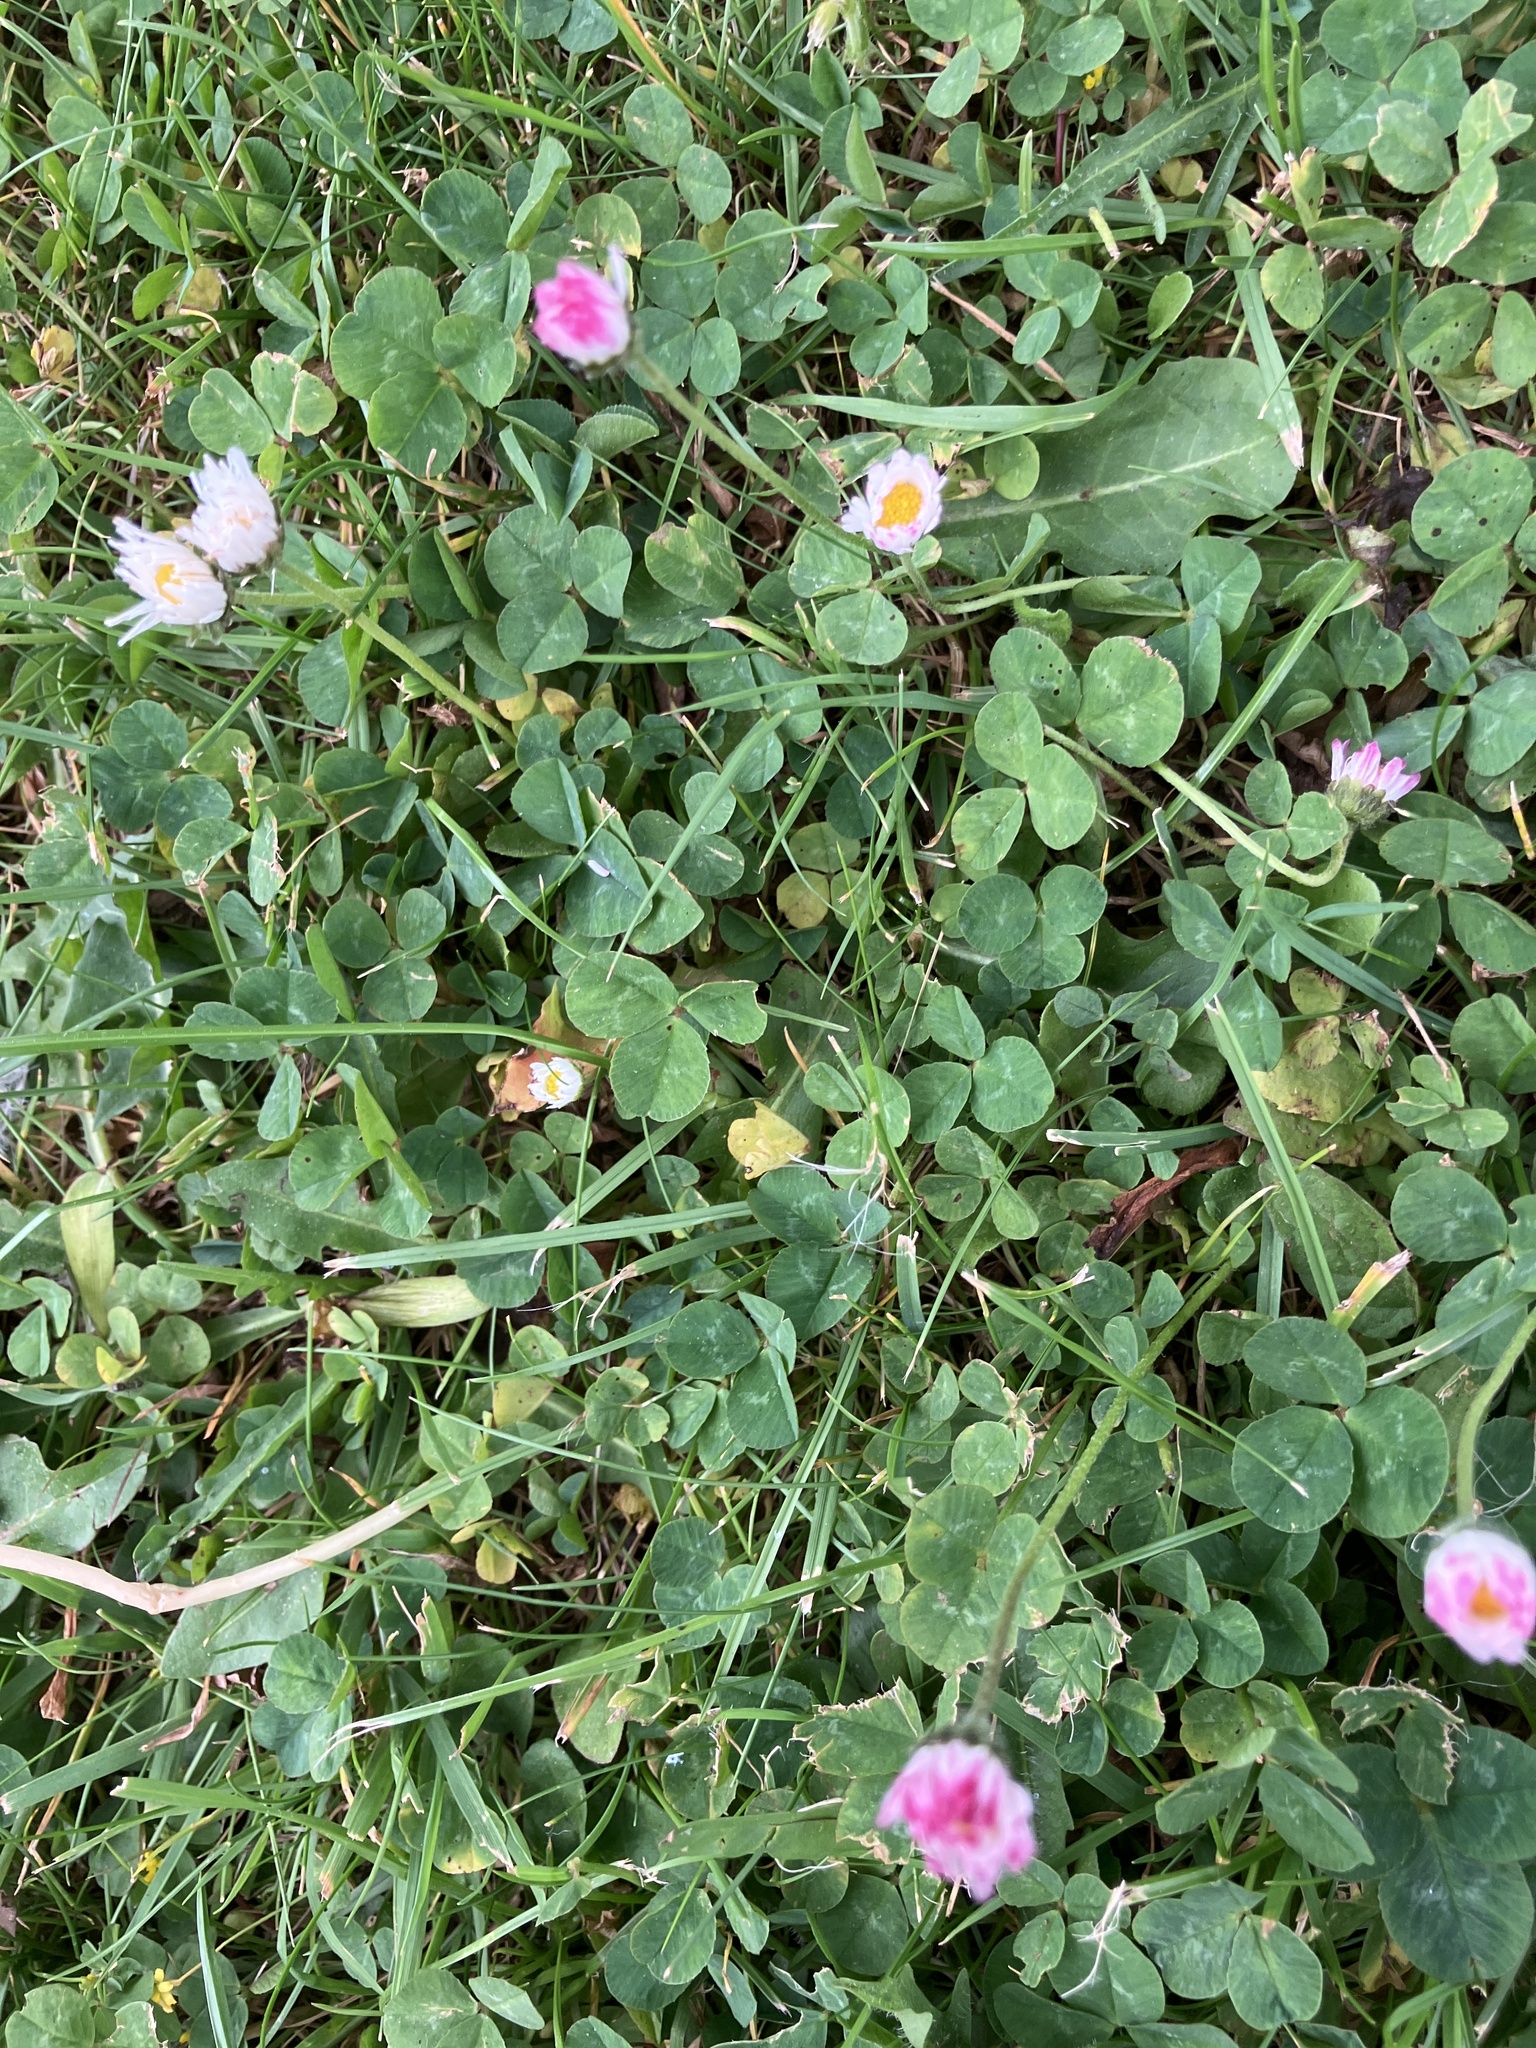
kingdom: Plantae
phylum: Tracheophyta
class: Magnoliopsida
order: Asterales
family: Asteraceae
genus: Bellis
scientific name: Bellis perennis
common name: Lawndaisy
